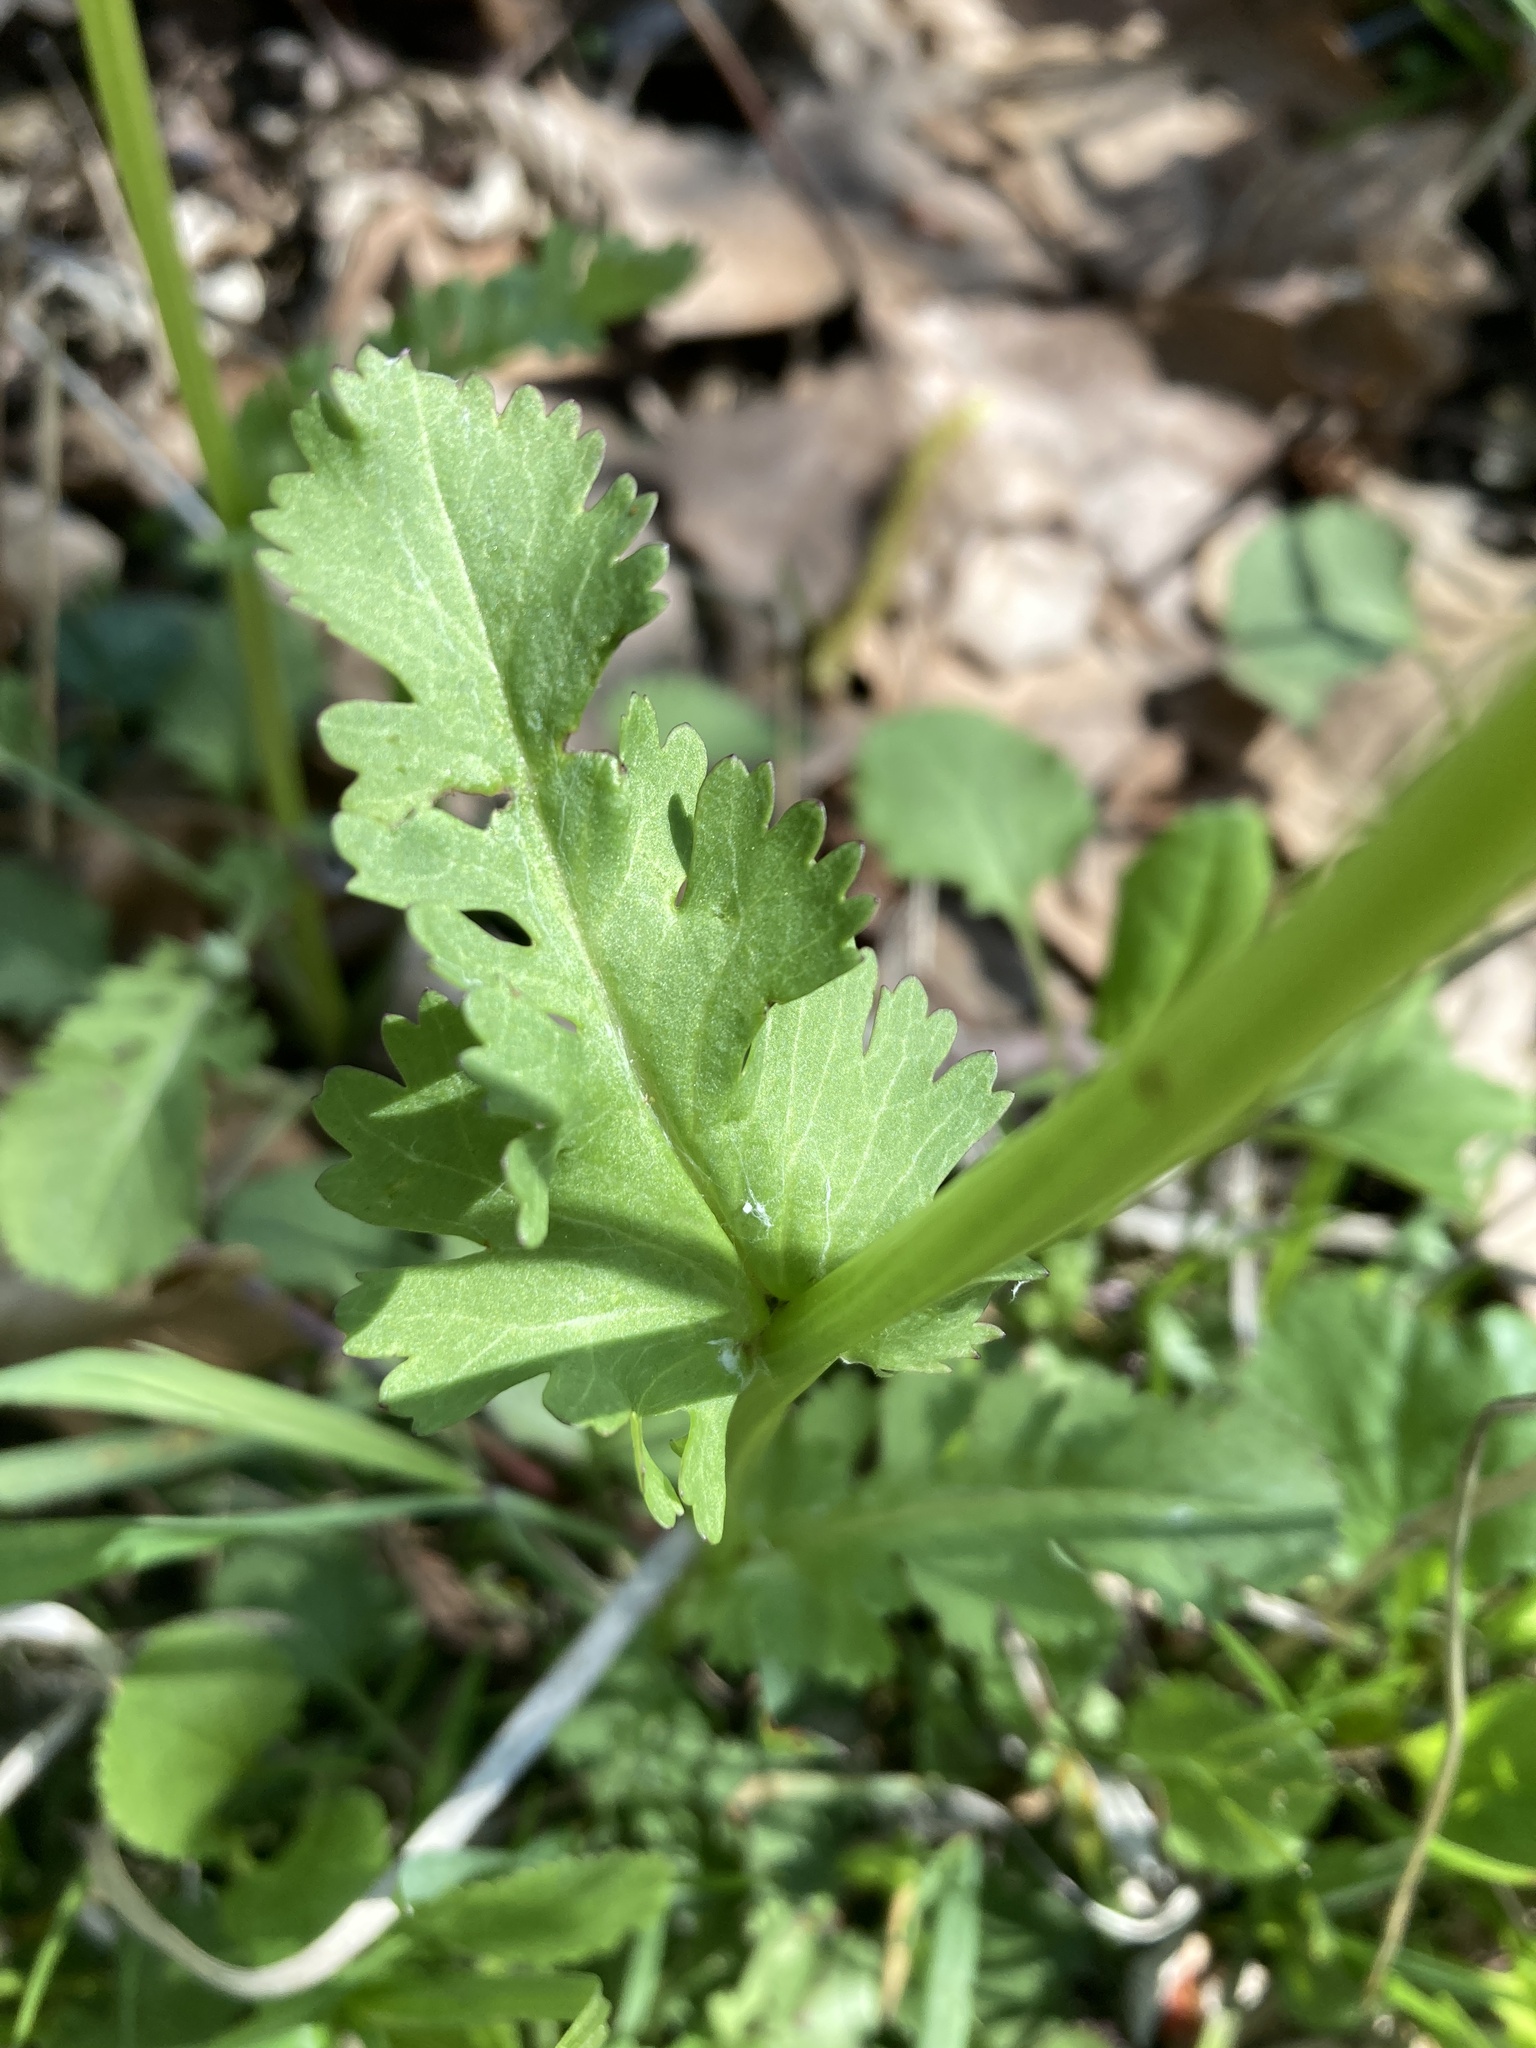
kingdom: Plantae
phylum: Tracheophyta
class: Magnoliopsida
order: Asterales
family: Asteraceae
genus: Packera
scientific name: Packera obovata
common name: Round-leaf ragwort
